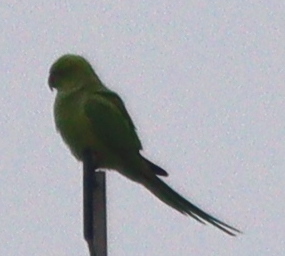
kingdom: Animalia
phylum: Chordata
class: Aves
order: Psittaciformes
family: Psittacidae
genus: Psittacula
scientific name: Psittacula krameri
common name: Rose-ringed parakeet
